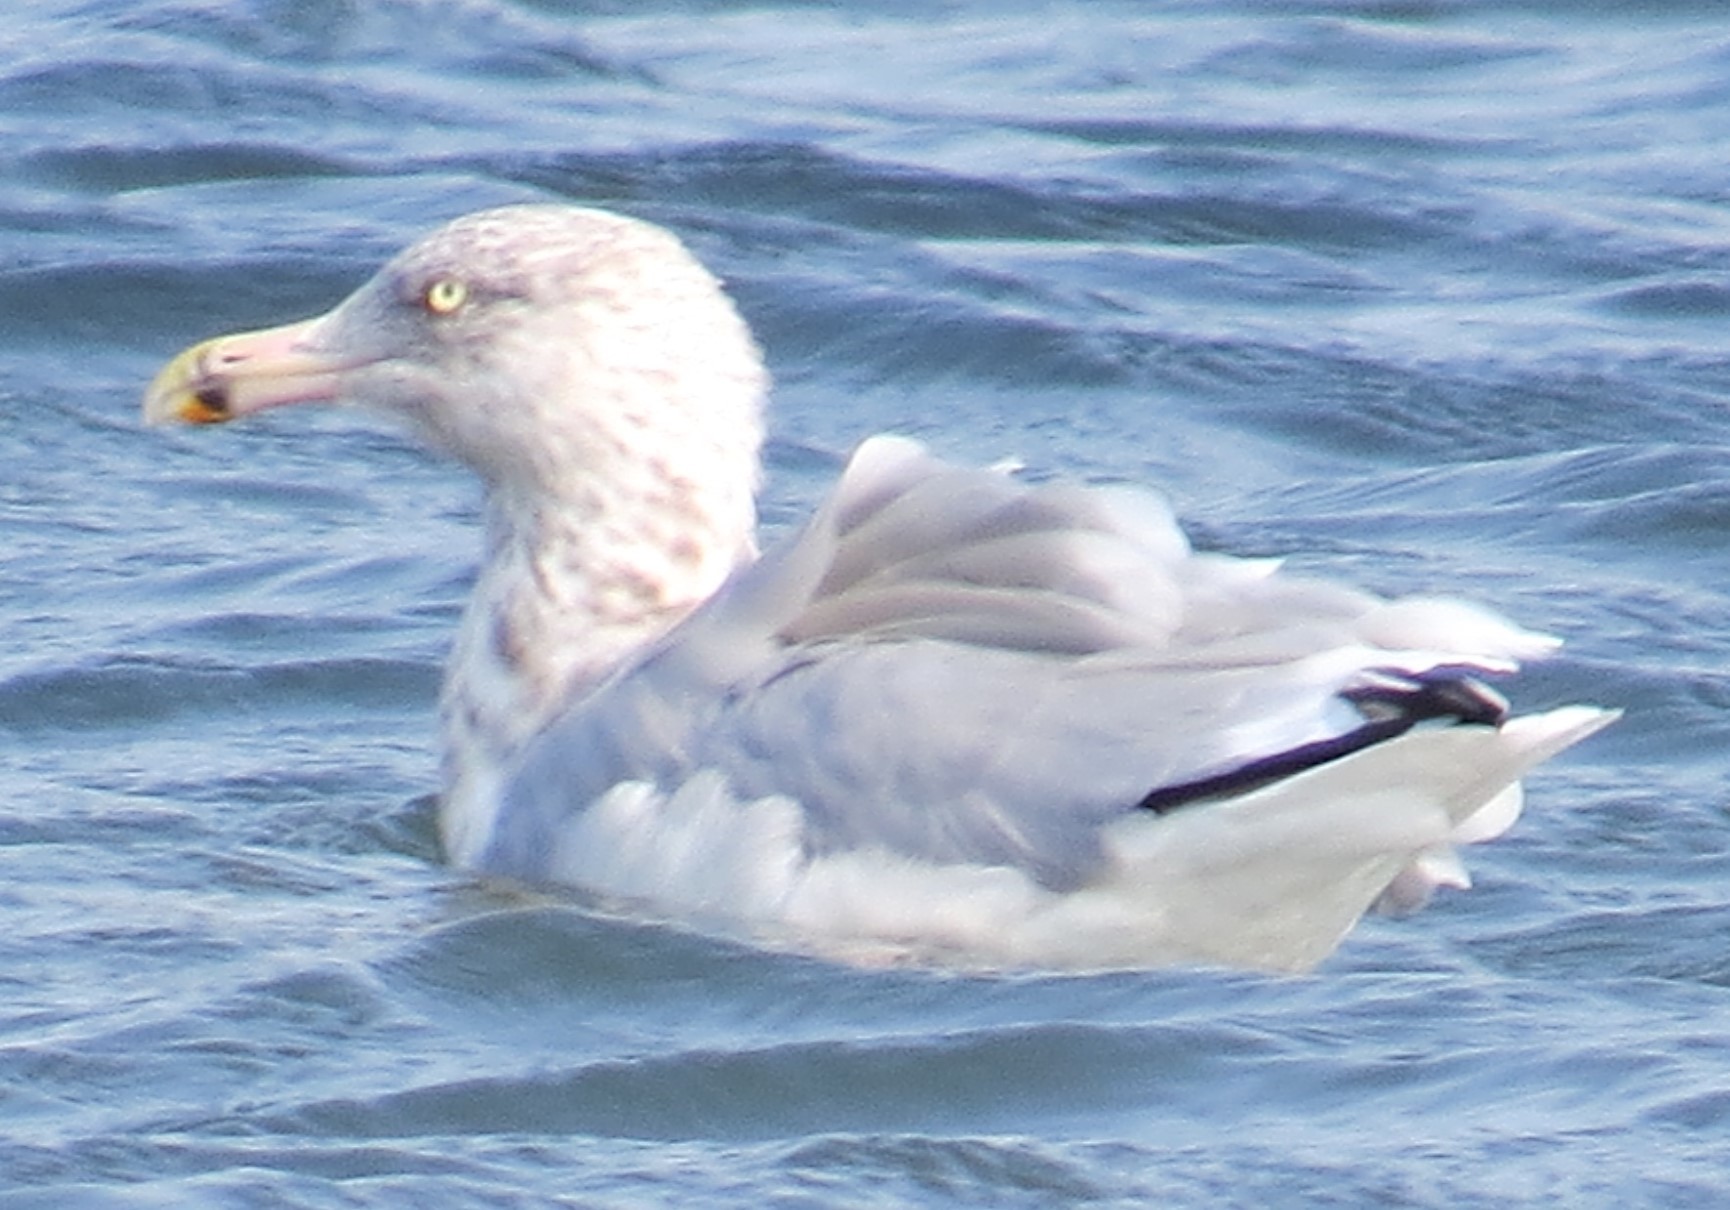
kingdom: Animalia
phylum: Chordata
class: Aves
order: Charadriiformes
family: Laridae
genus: Larus
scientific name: Larus argentatus
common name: Herring gull
